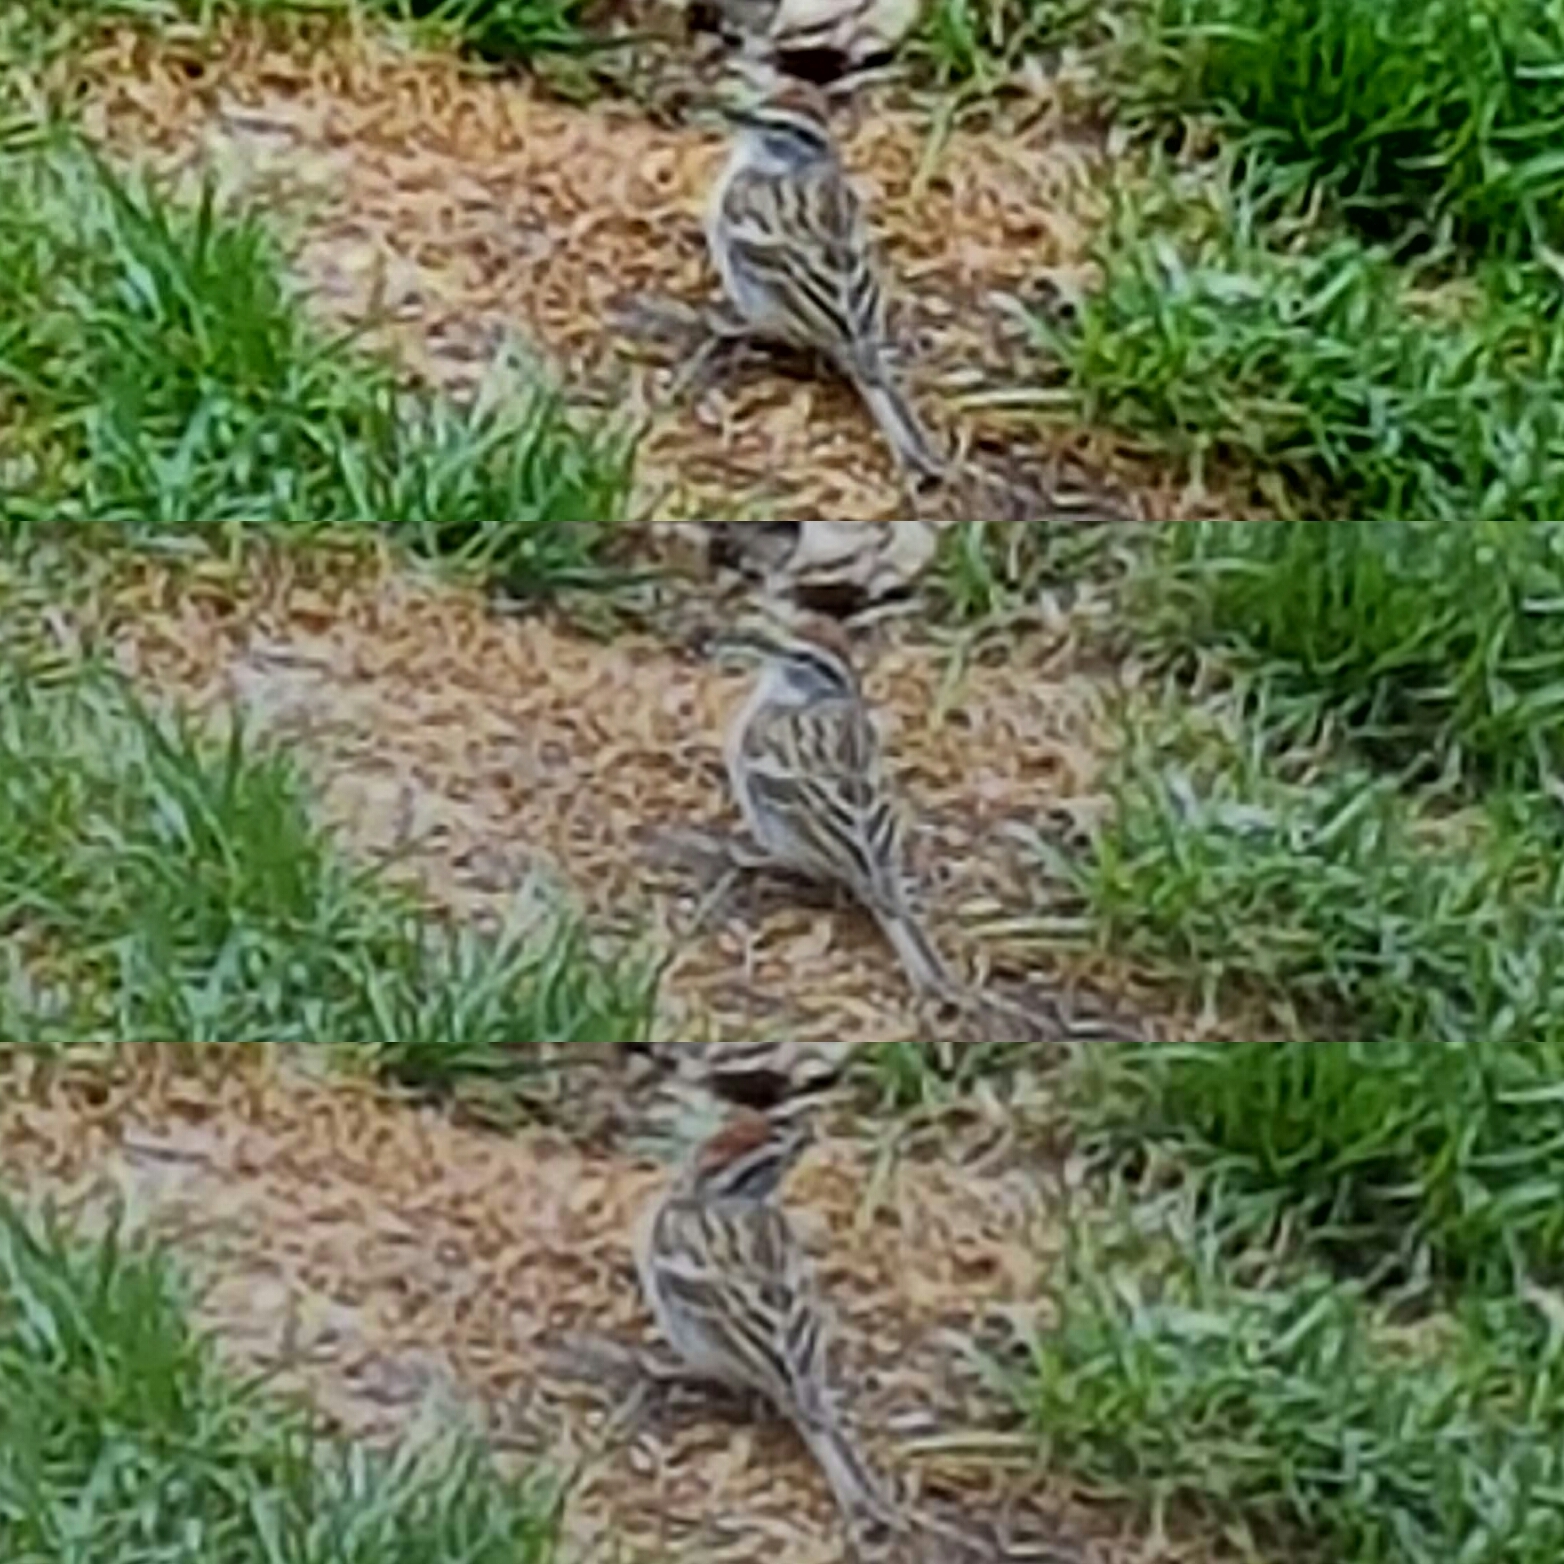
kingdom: Animalia
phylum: Chordata
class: Aves
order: Passeriformes
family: Passerellidae
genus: Spizella
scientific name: Spizella passerina
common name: Chipping sparrow
